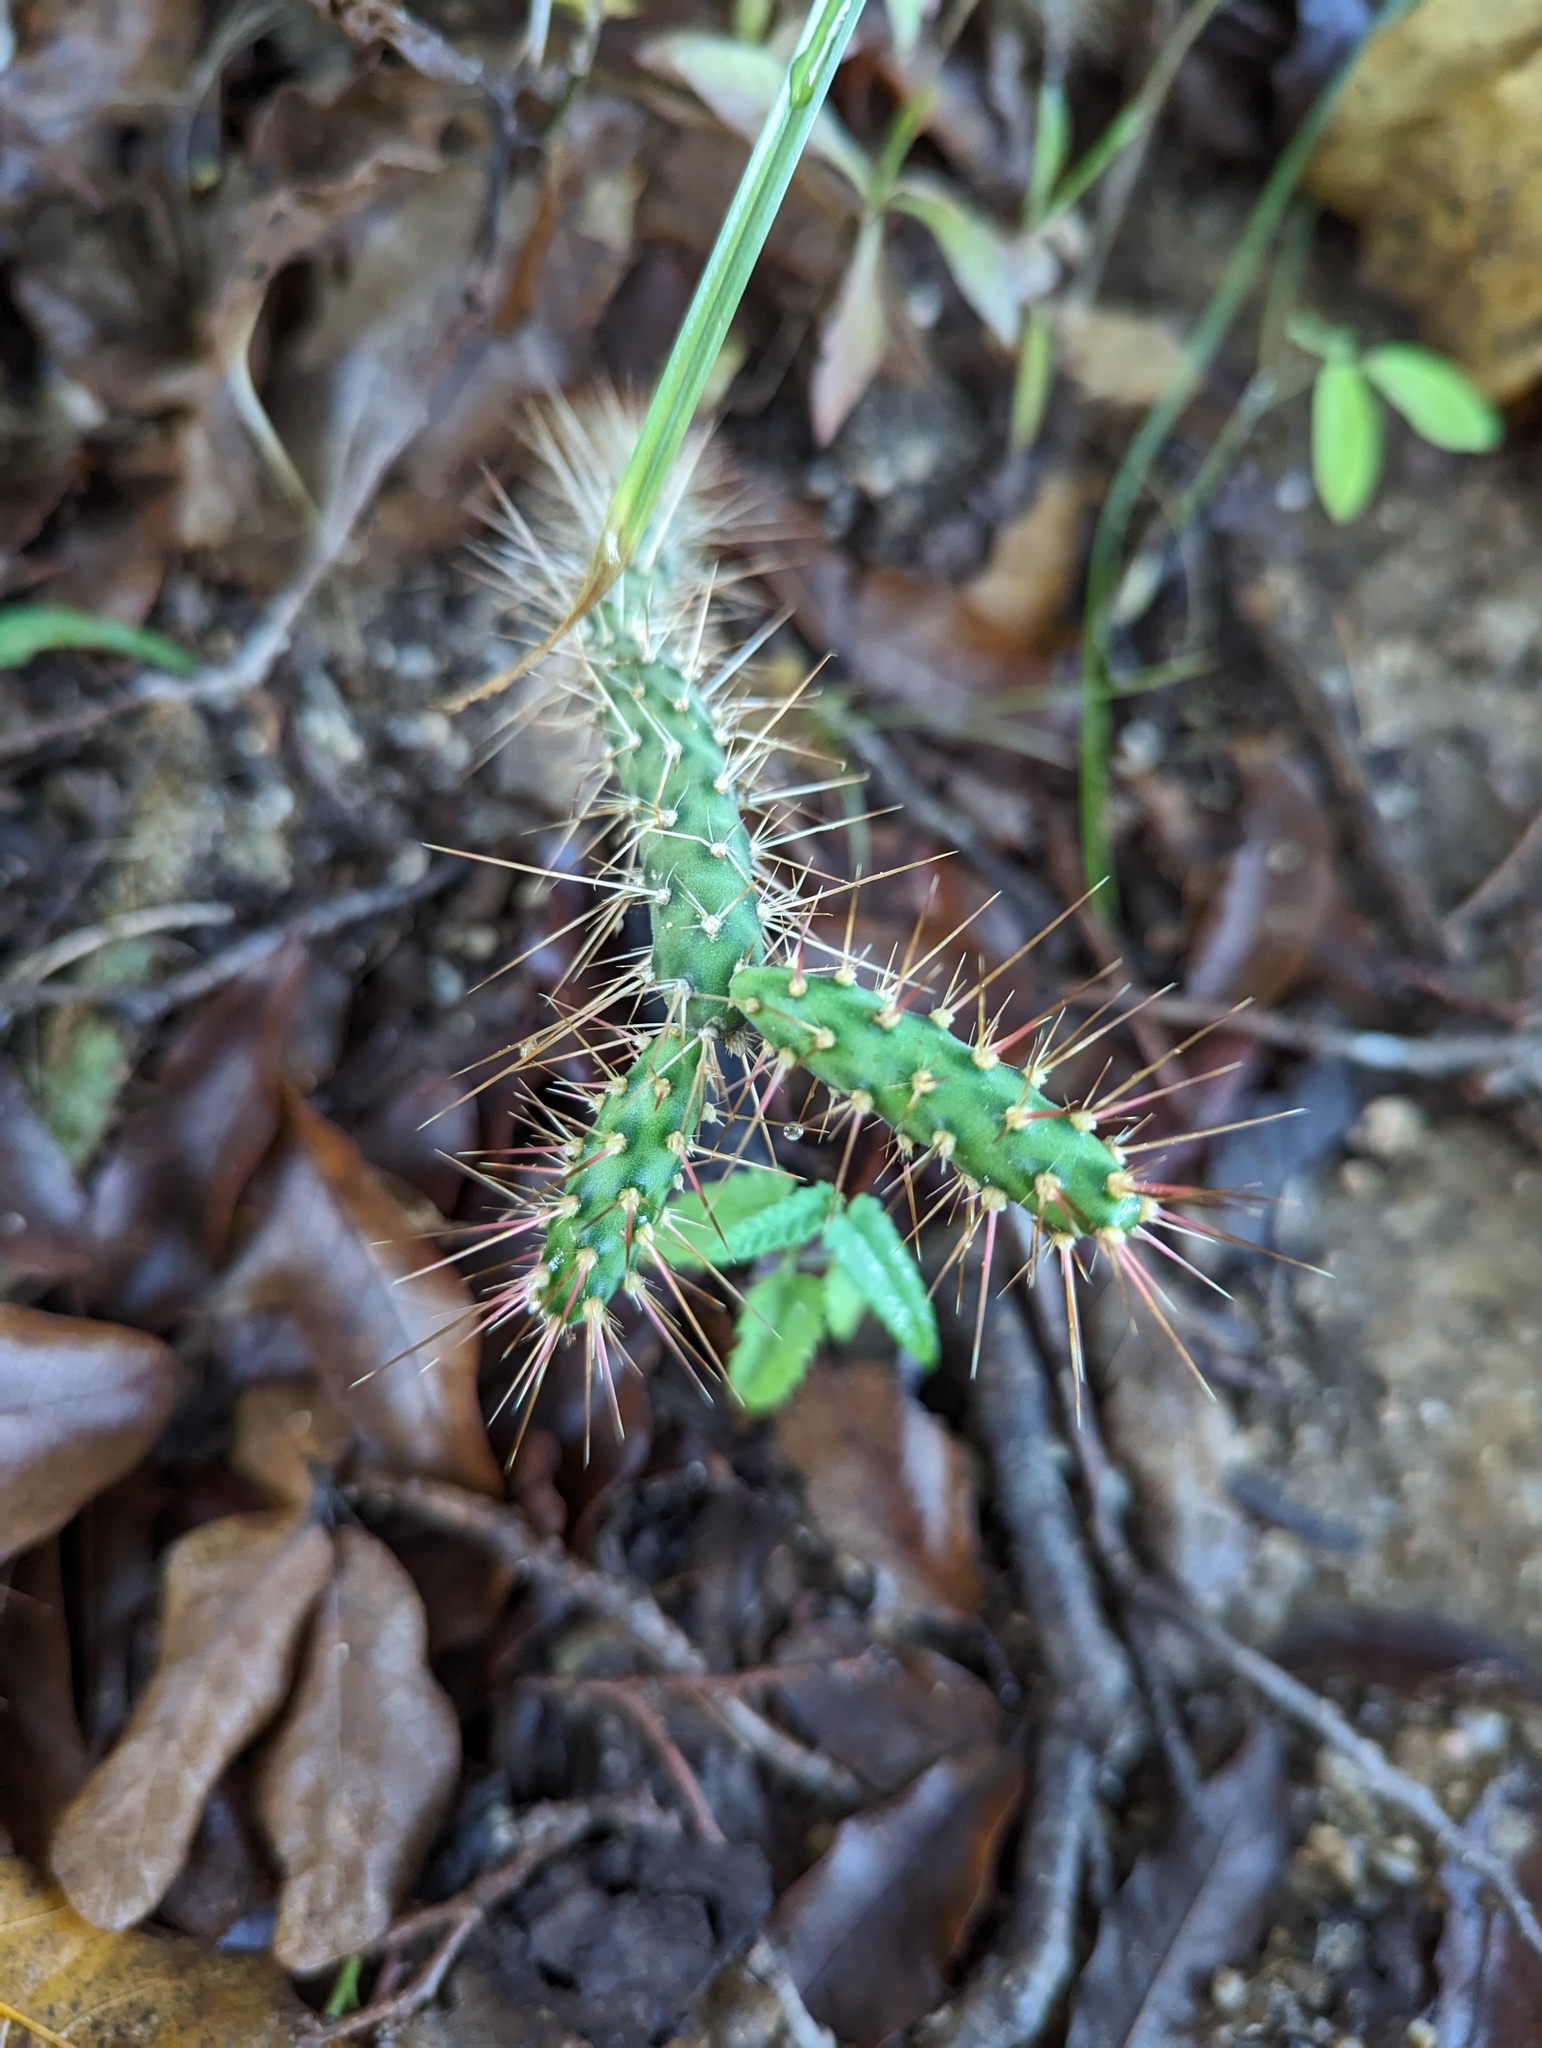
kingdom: Plantae
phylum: Tracheophyta
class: Magnoliopsida
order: Caryophyllales
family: Cactaceae
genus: Opuntia
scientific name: Opuntia pubescens
